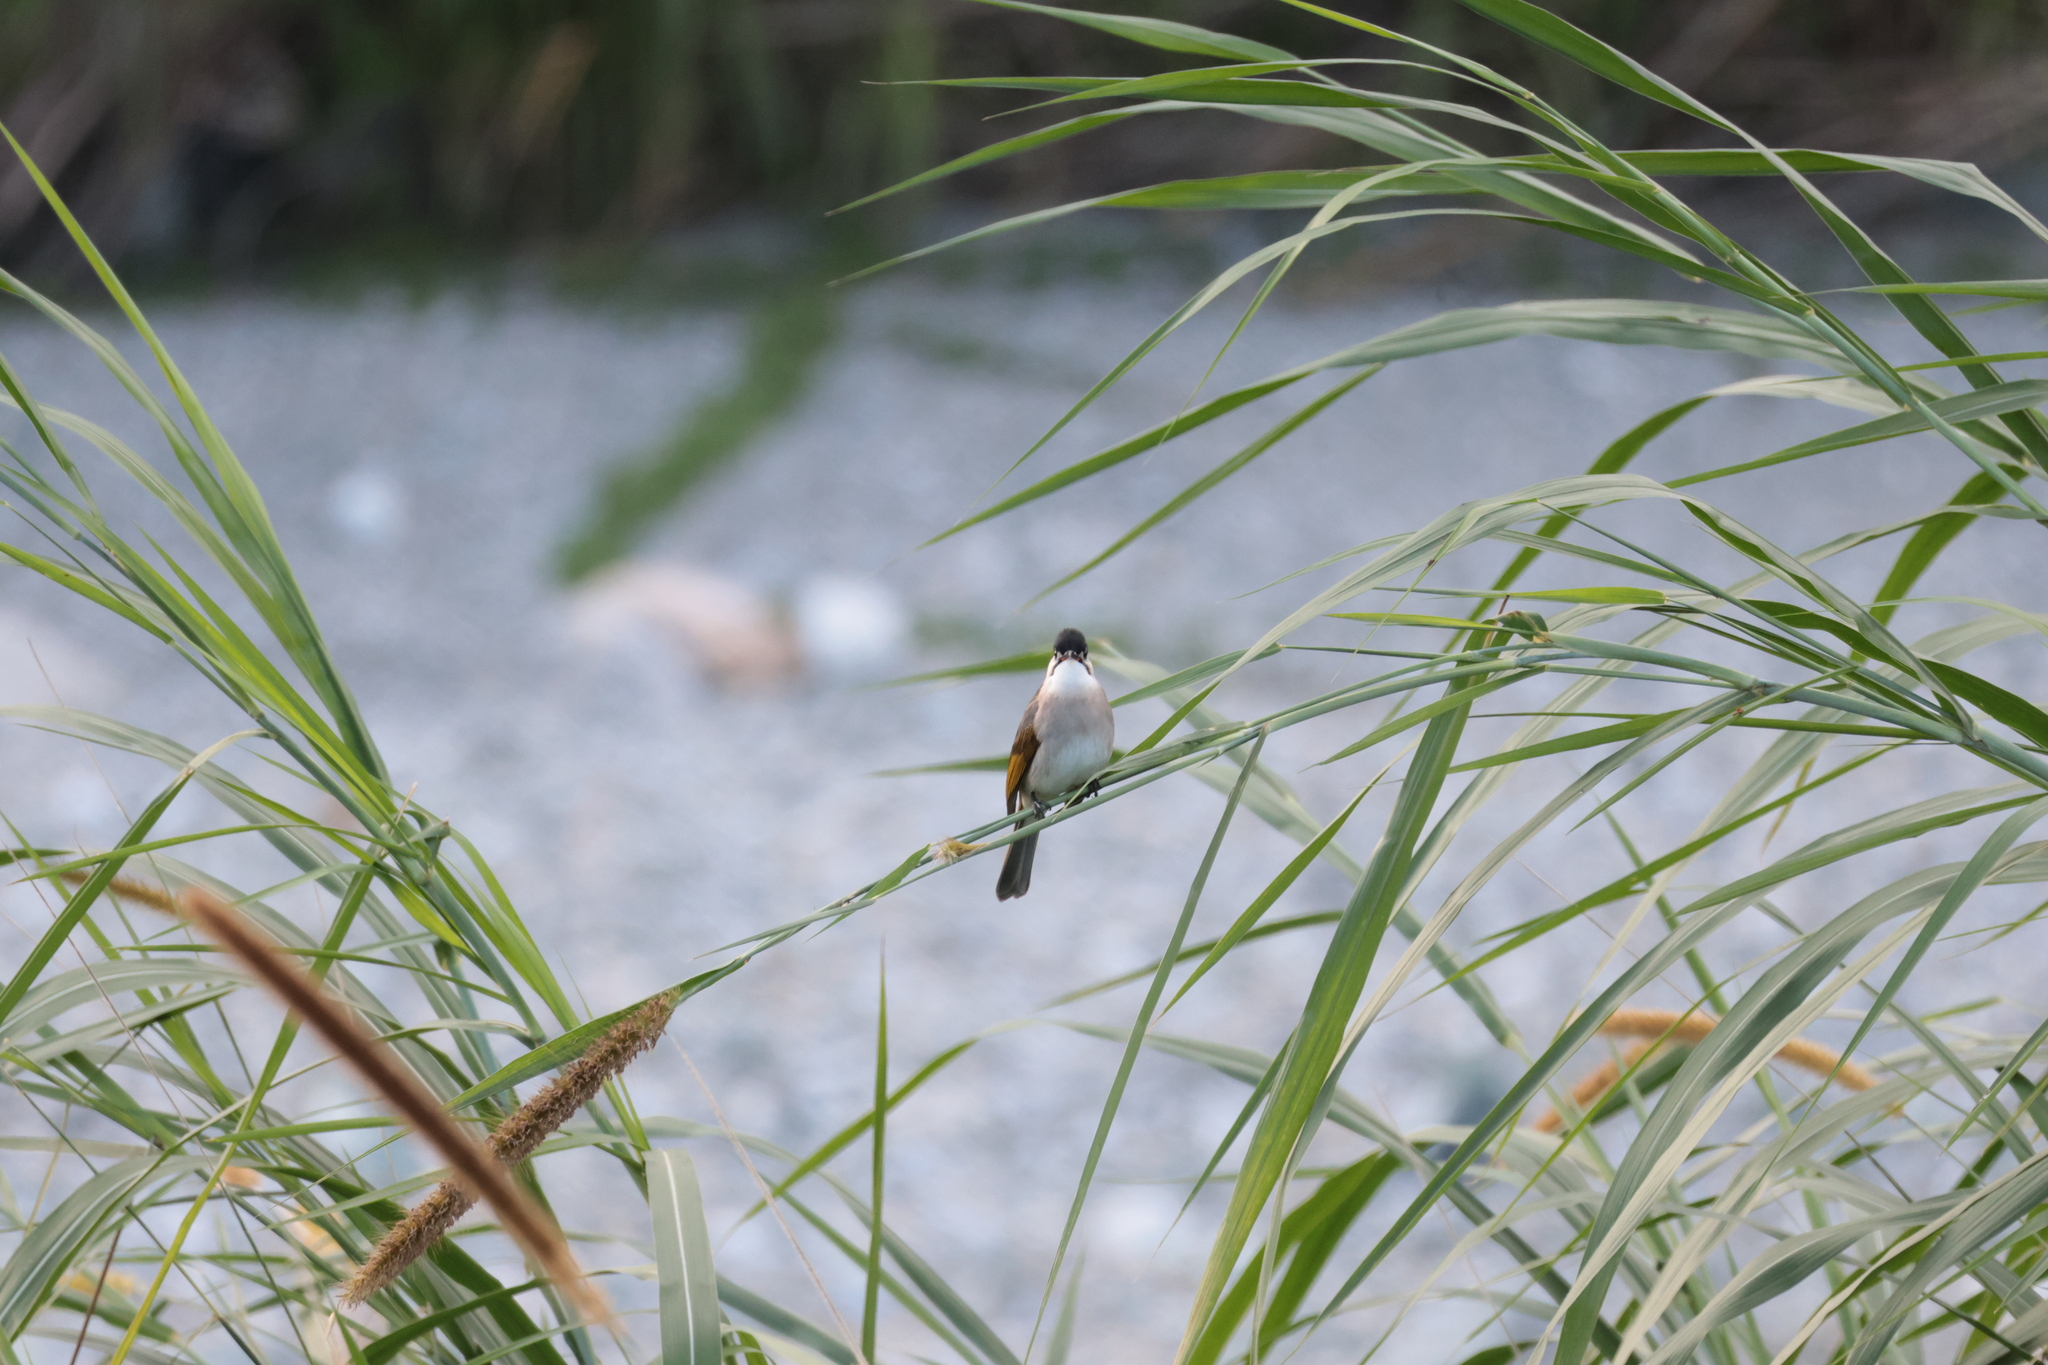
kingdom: Animalia
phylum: Chordata
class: Aves
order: Passeriformes
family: Pycnonotidae
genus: Pycnonotus
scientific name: Pycnonotus taivanus
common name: Styan's bulbul
